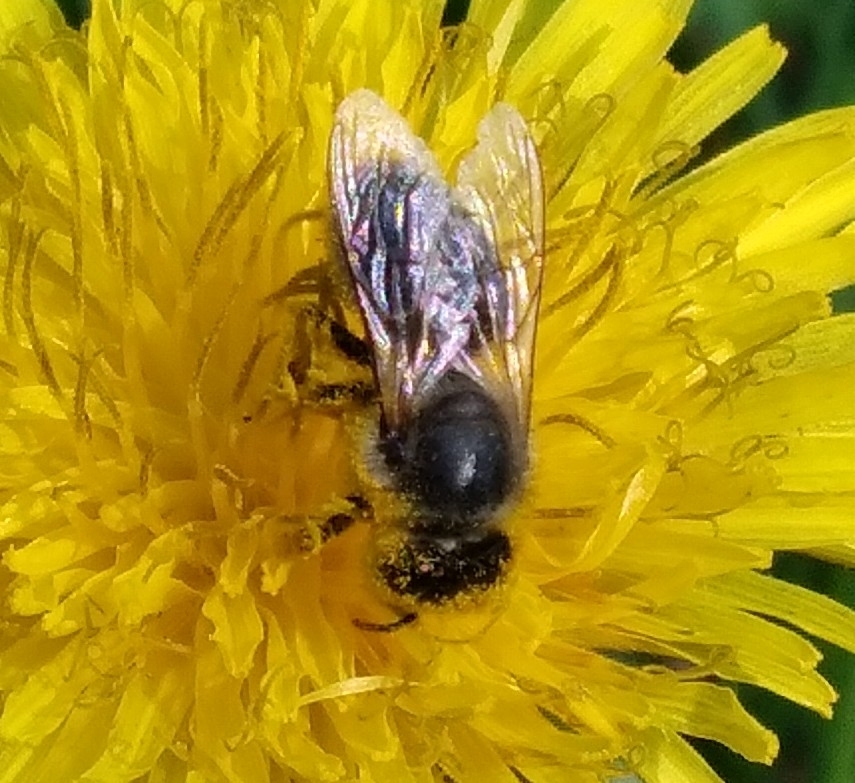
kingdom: Animalia
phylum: Arthropoda
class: Insecta
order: Hymenoptera
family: Apidae
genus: Apis
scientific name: Apis mellifera
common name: Honey bee
